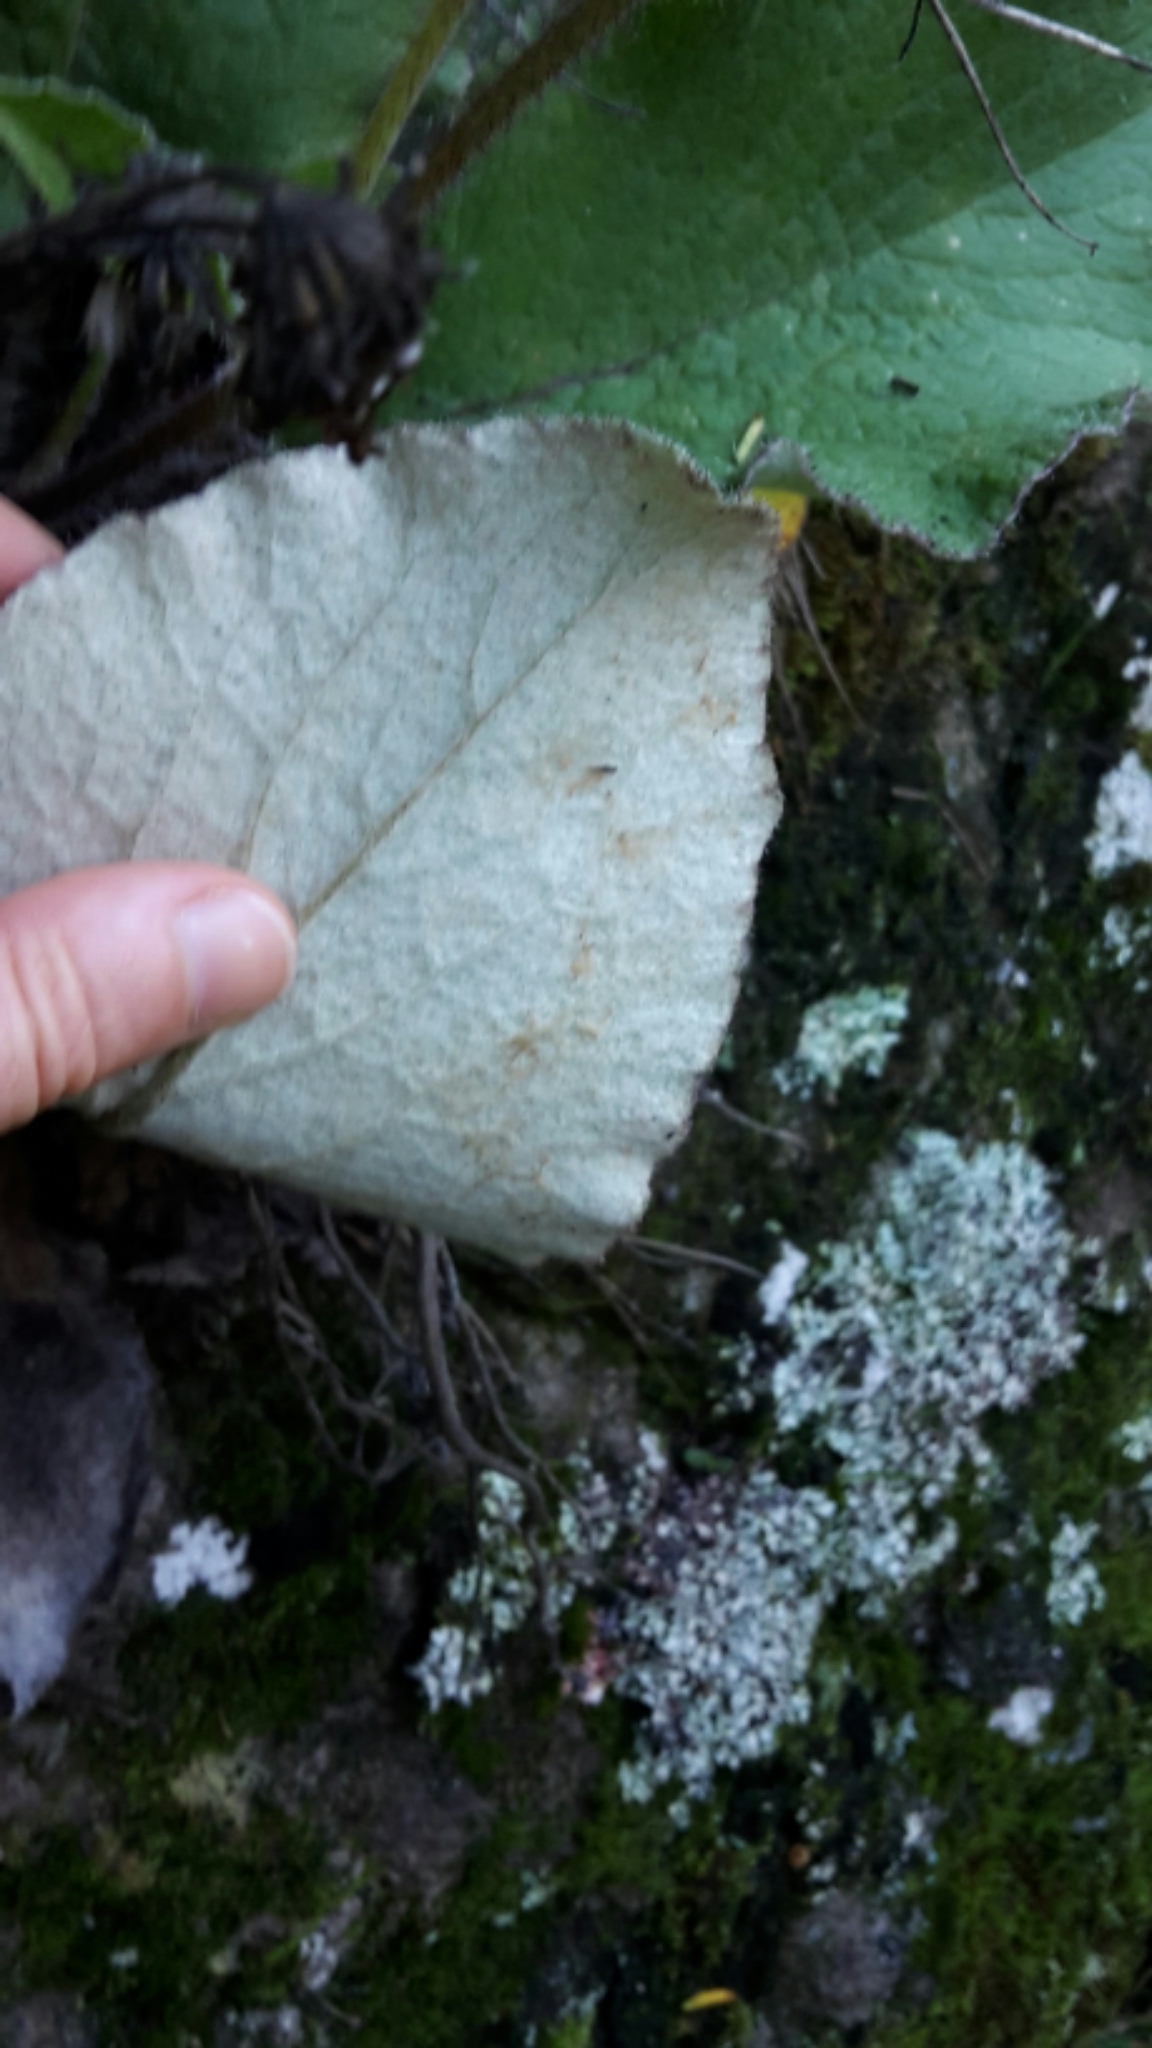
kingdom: Plantae
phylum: Tracheophyta
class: Magnoliopsida
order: Asterales
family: Asteraceae
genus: Brachyglottis
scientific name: Brachyglottis lagopus
